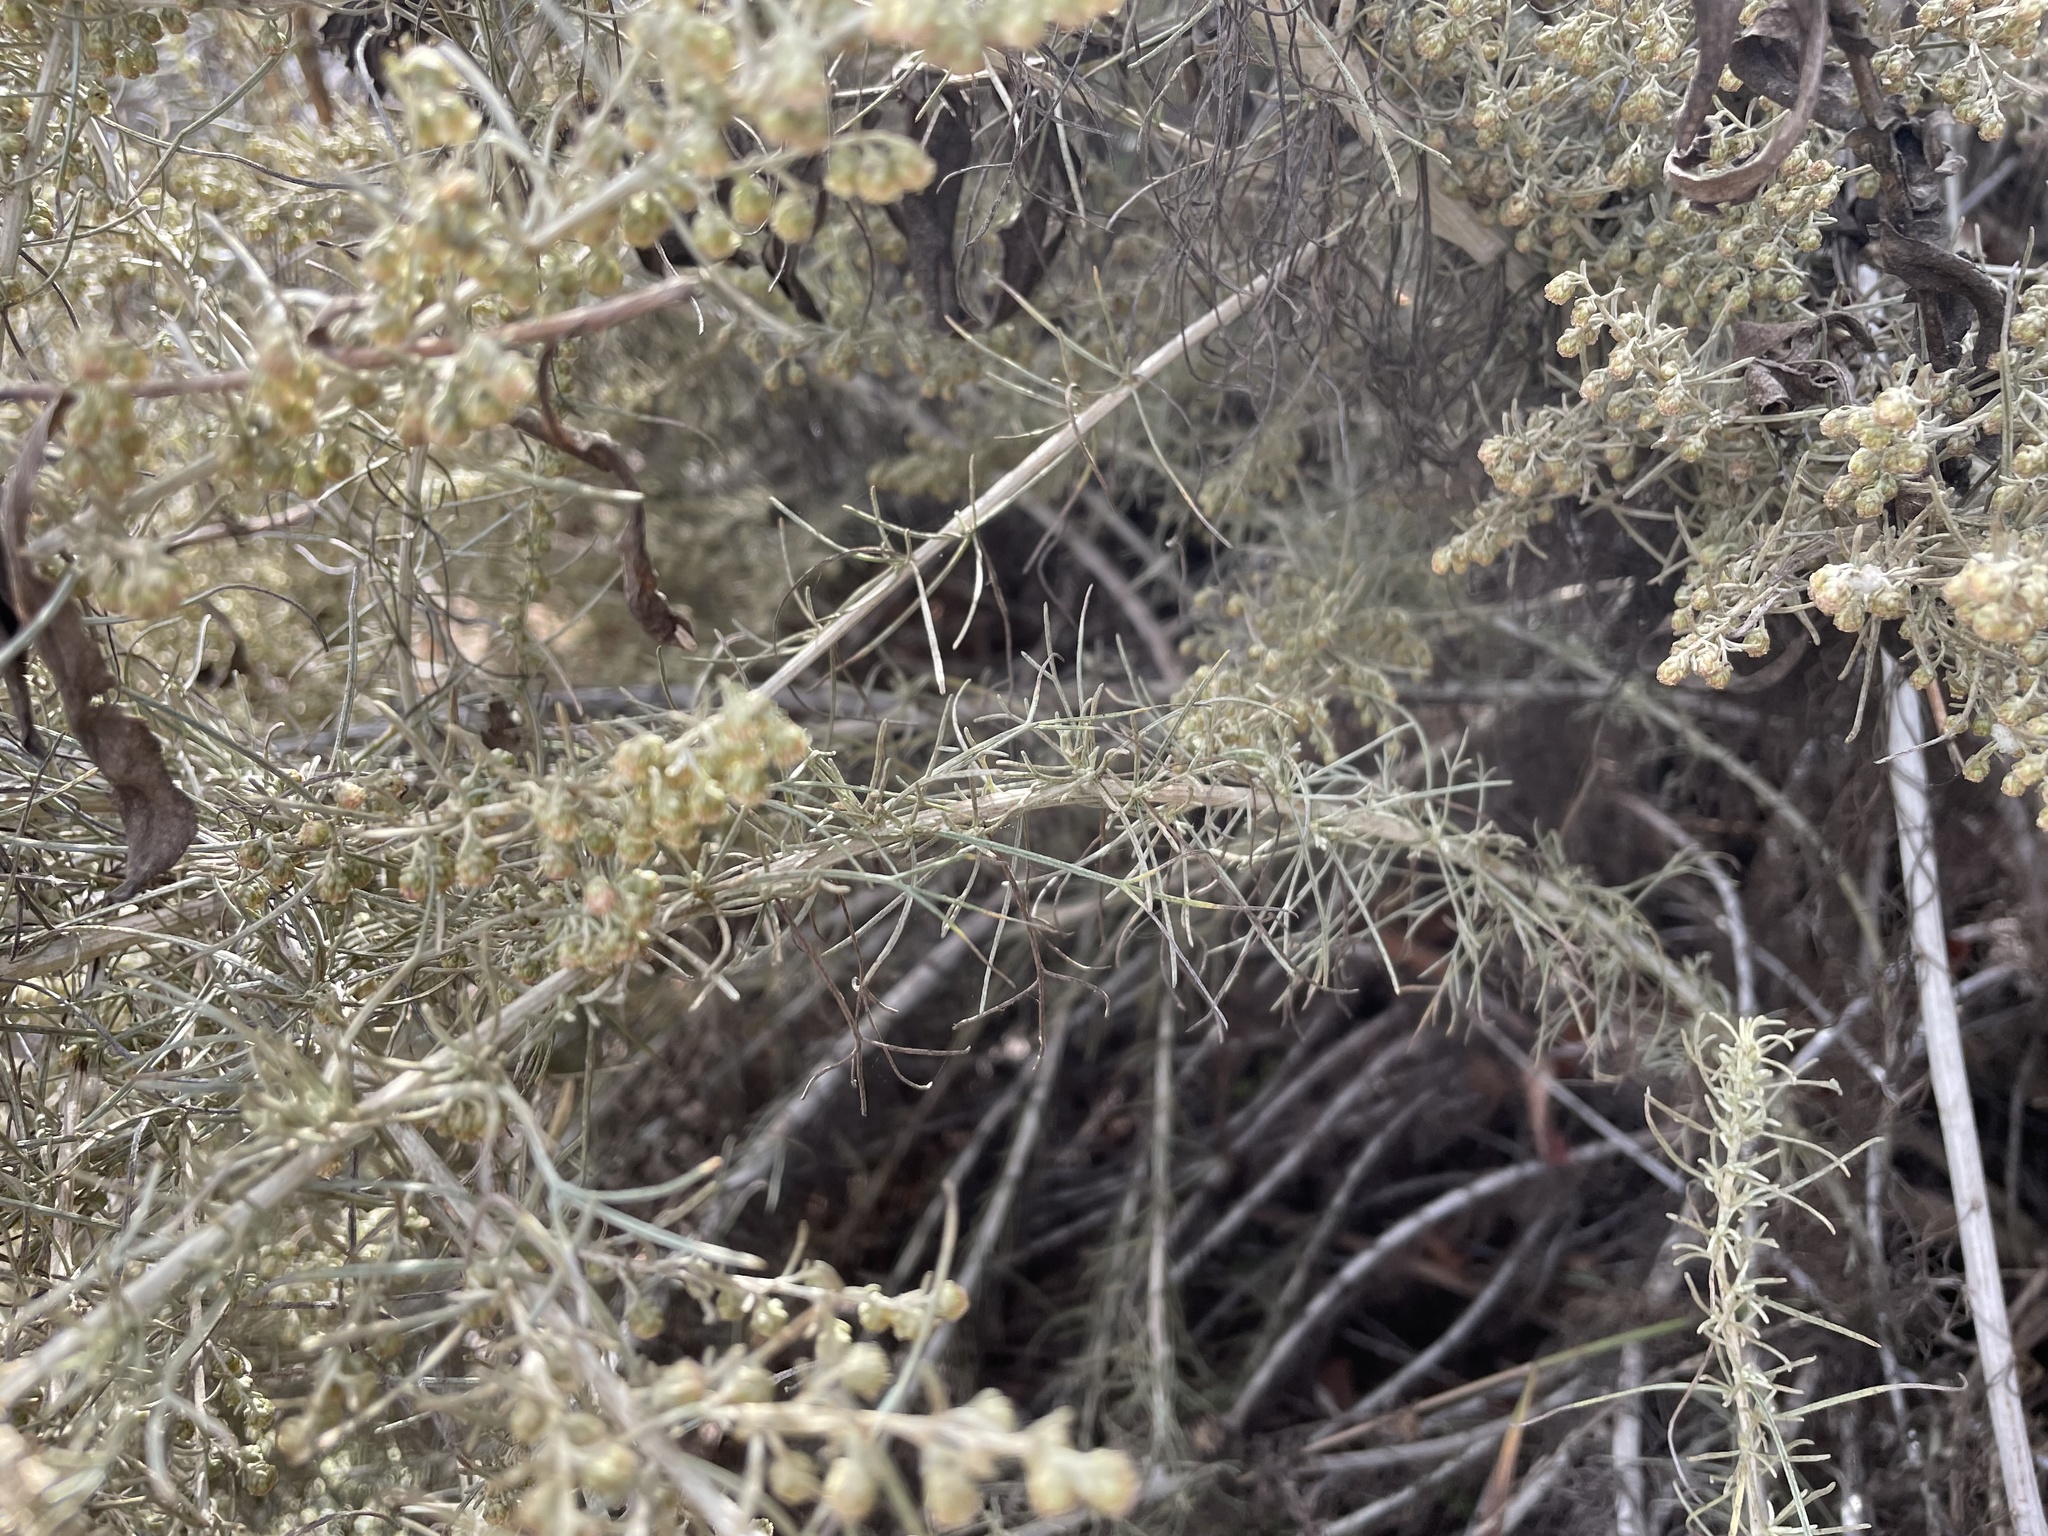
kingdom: Plantae
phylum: Tracheophyta
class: Magnoliopsida
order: Asterales
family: Asteraceae
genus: Artemisia
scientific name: Artemisia californica
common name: California sagebrush
